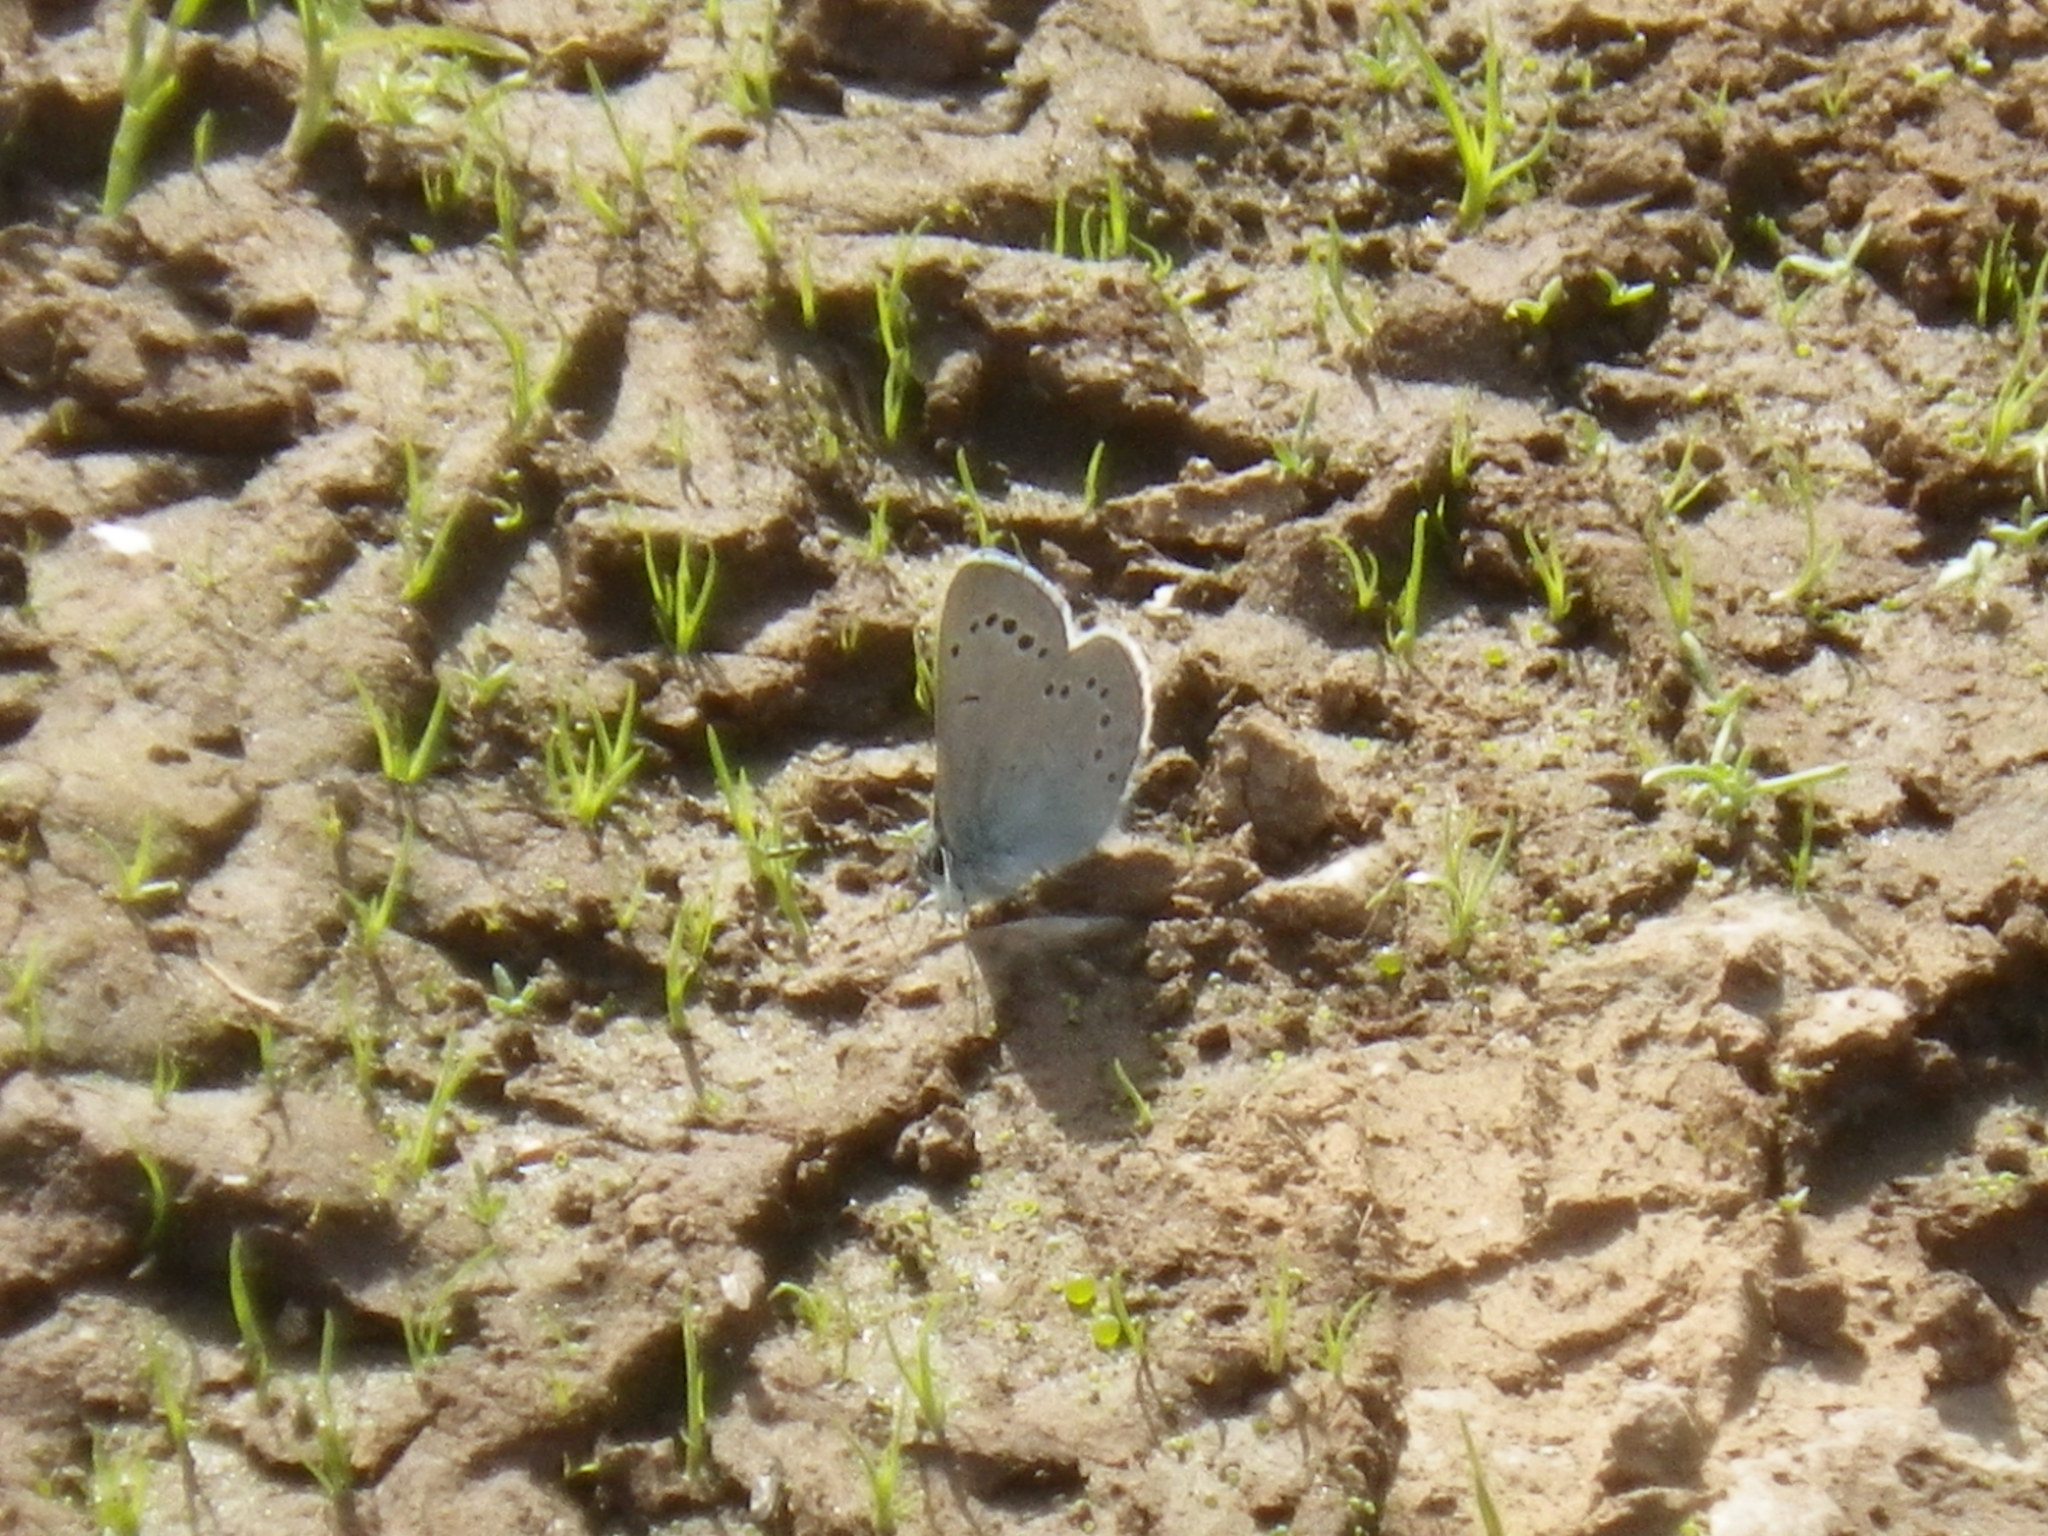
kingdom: Animalia
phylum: Arthropoda
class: Insecta
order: Lepidoptera
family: Lycaenidae
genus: Glaucopsyche
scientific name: Glaucopsyche lygdamus
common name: Silvery blue
